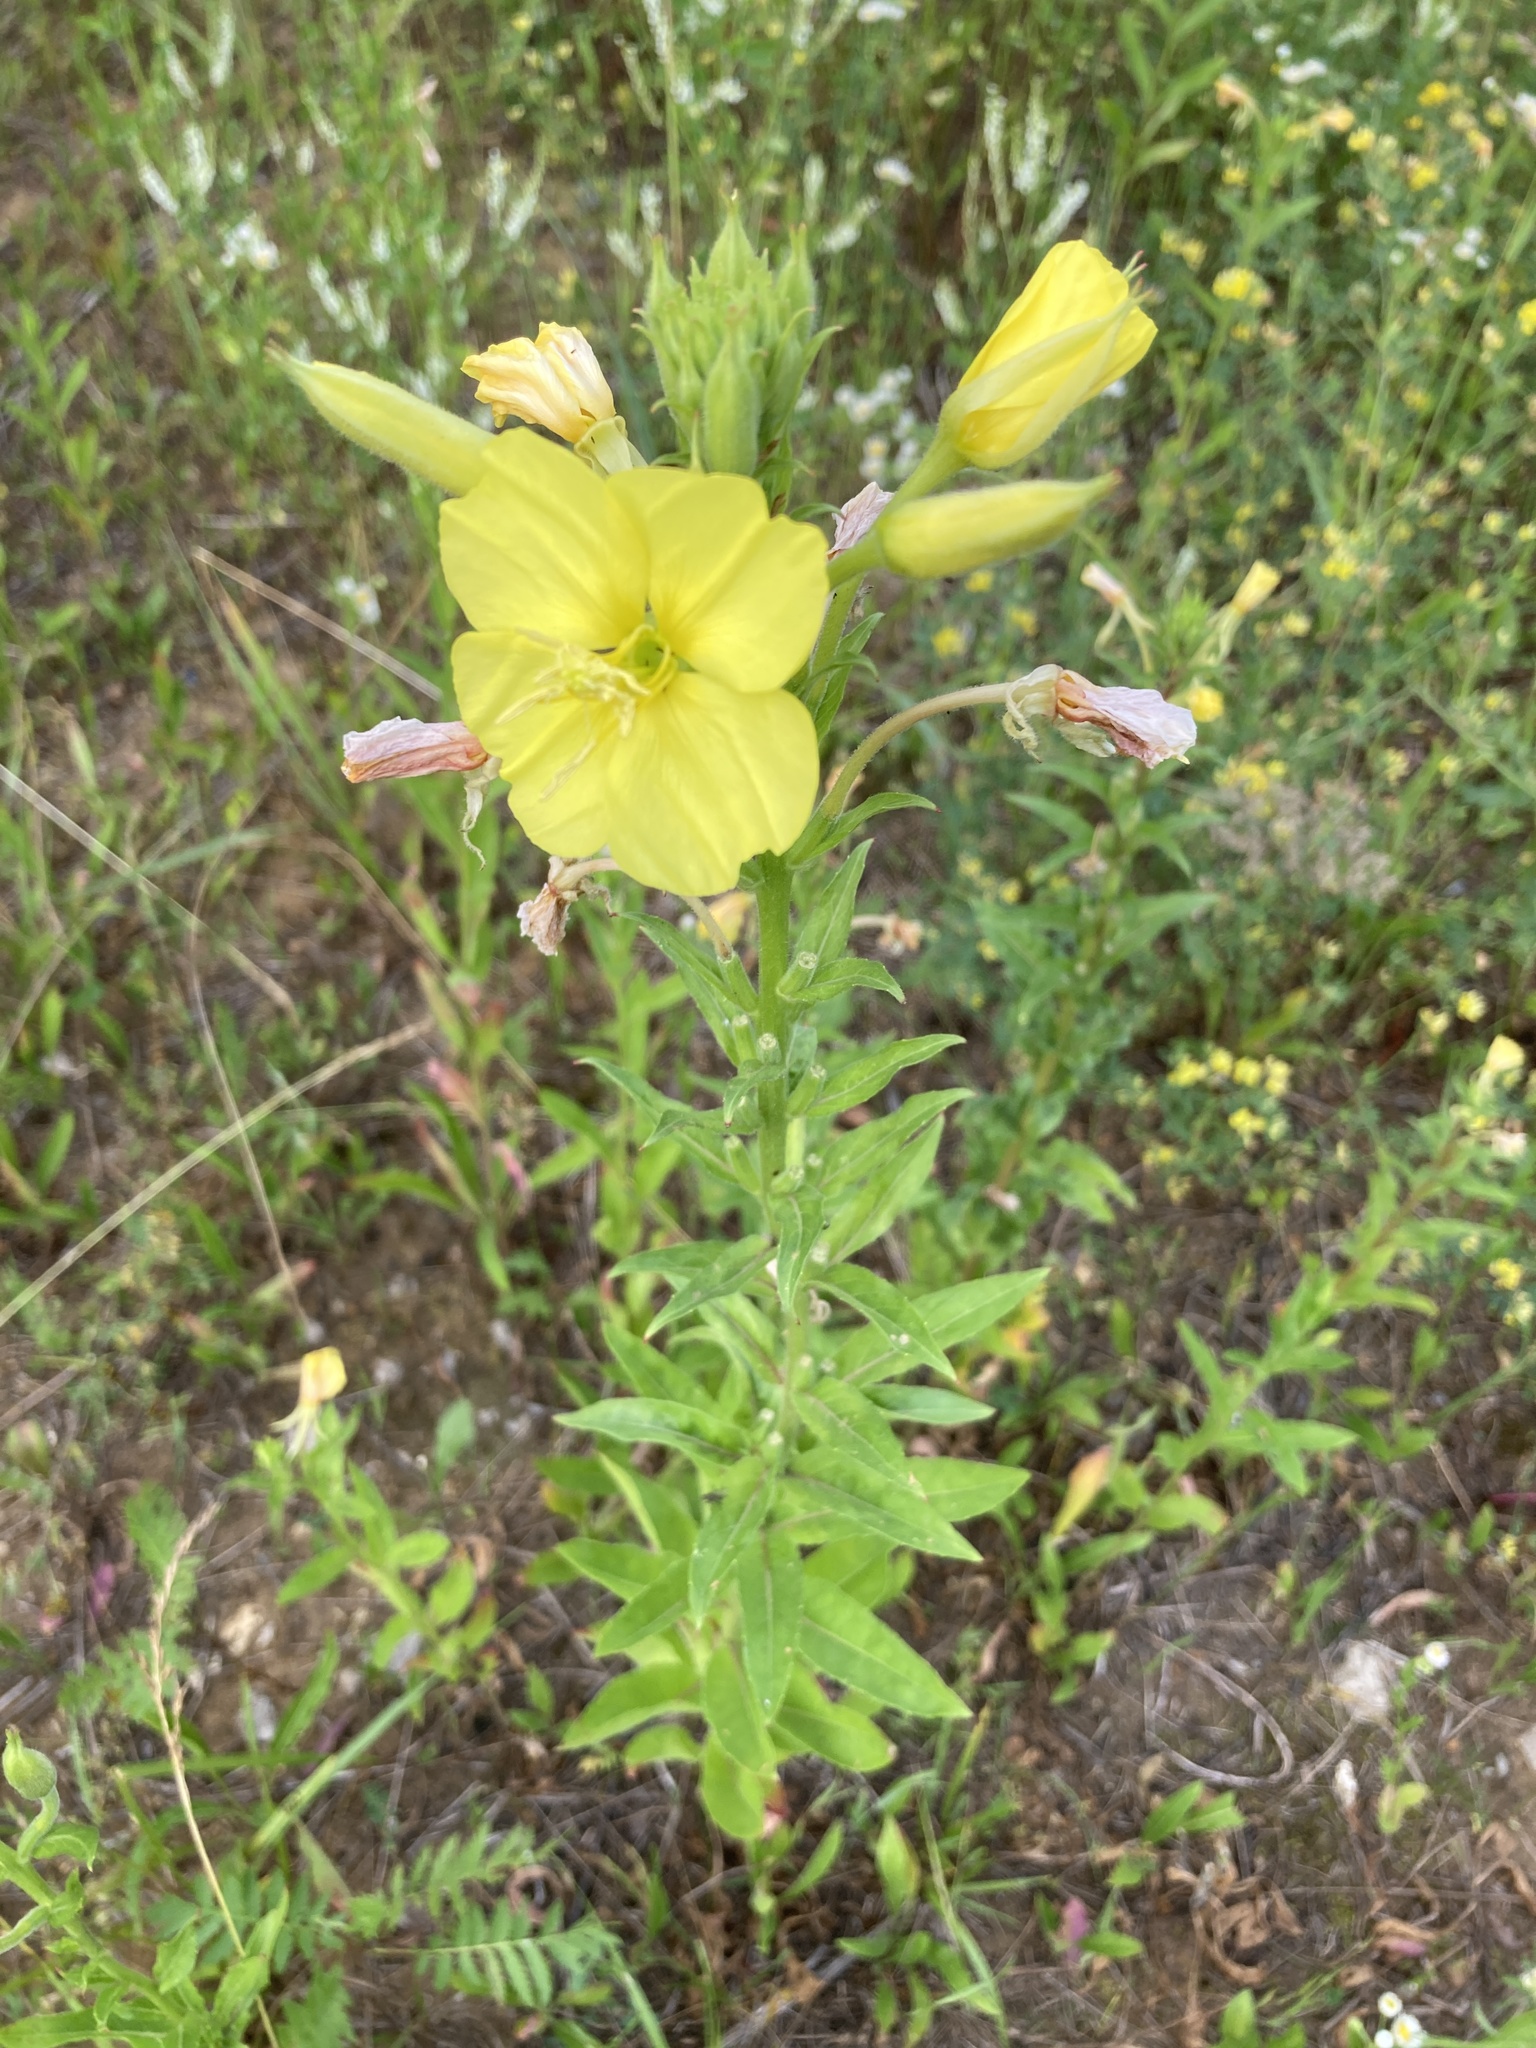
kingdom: Plantae
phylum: Tracheophyta
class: Magnoliopsida
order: Myrtales
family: Onagraceae
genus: Oenothera
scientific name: Oenothera biennis
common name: Common evening-primrose
